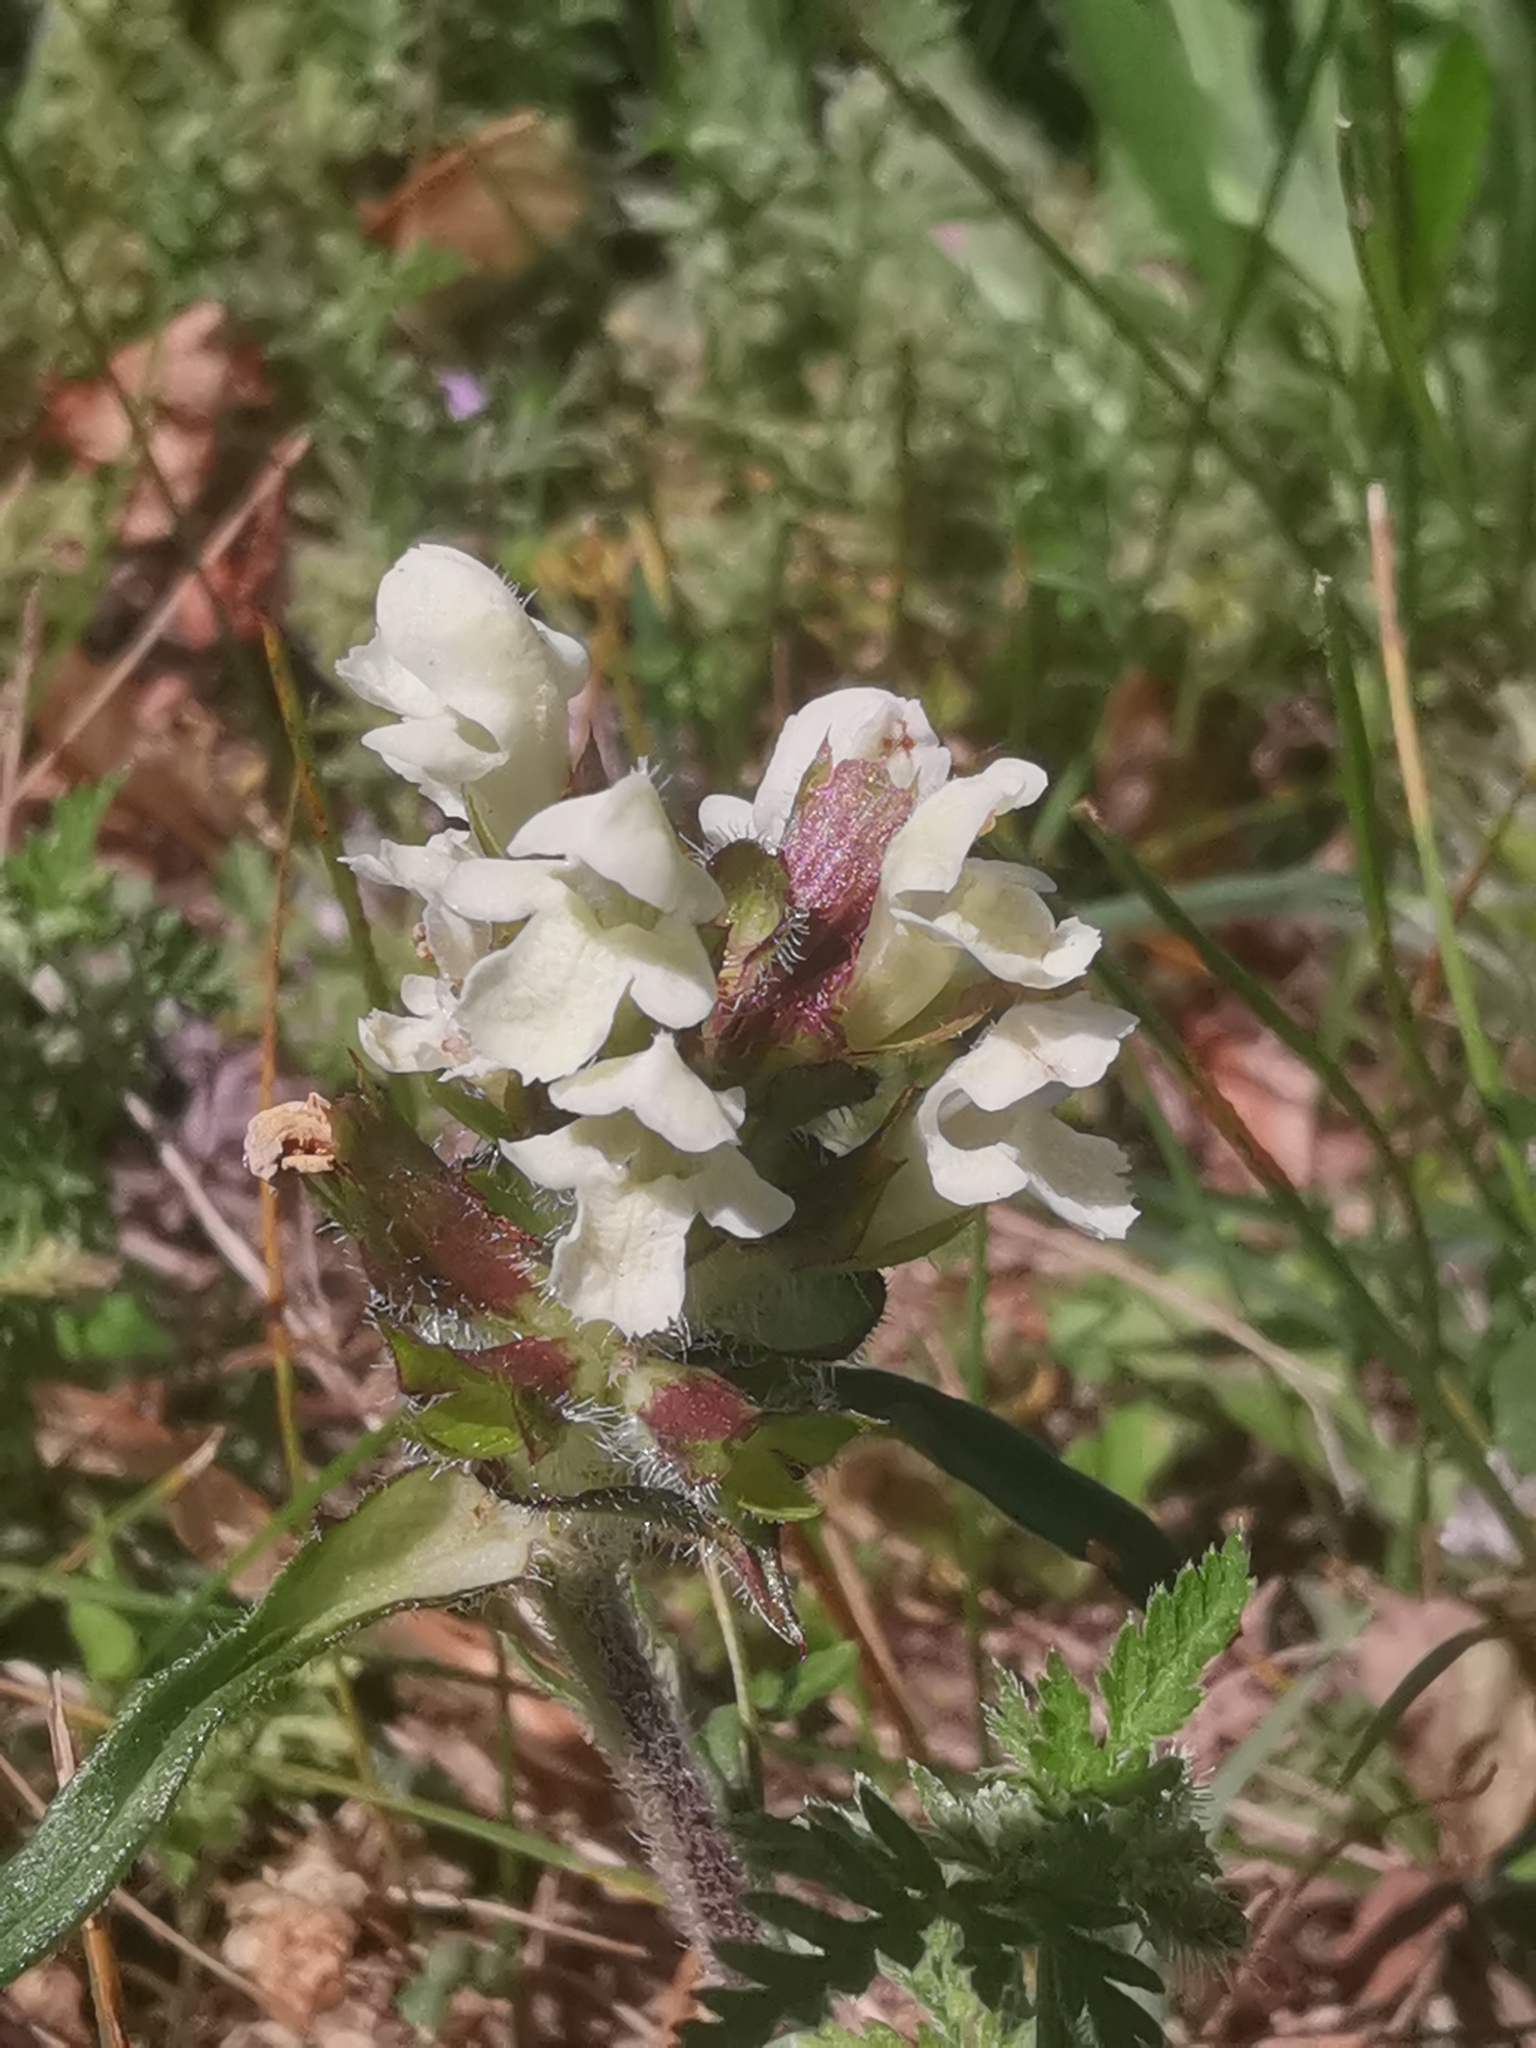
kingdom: Plantae
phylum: Tracheophyta
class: Magnoliopsida
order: Lamiales
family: Lamiaceae
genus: Prunella
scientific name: Prunella laciniata
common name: Cut-leaved selfheal
